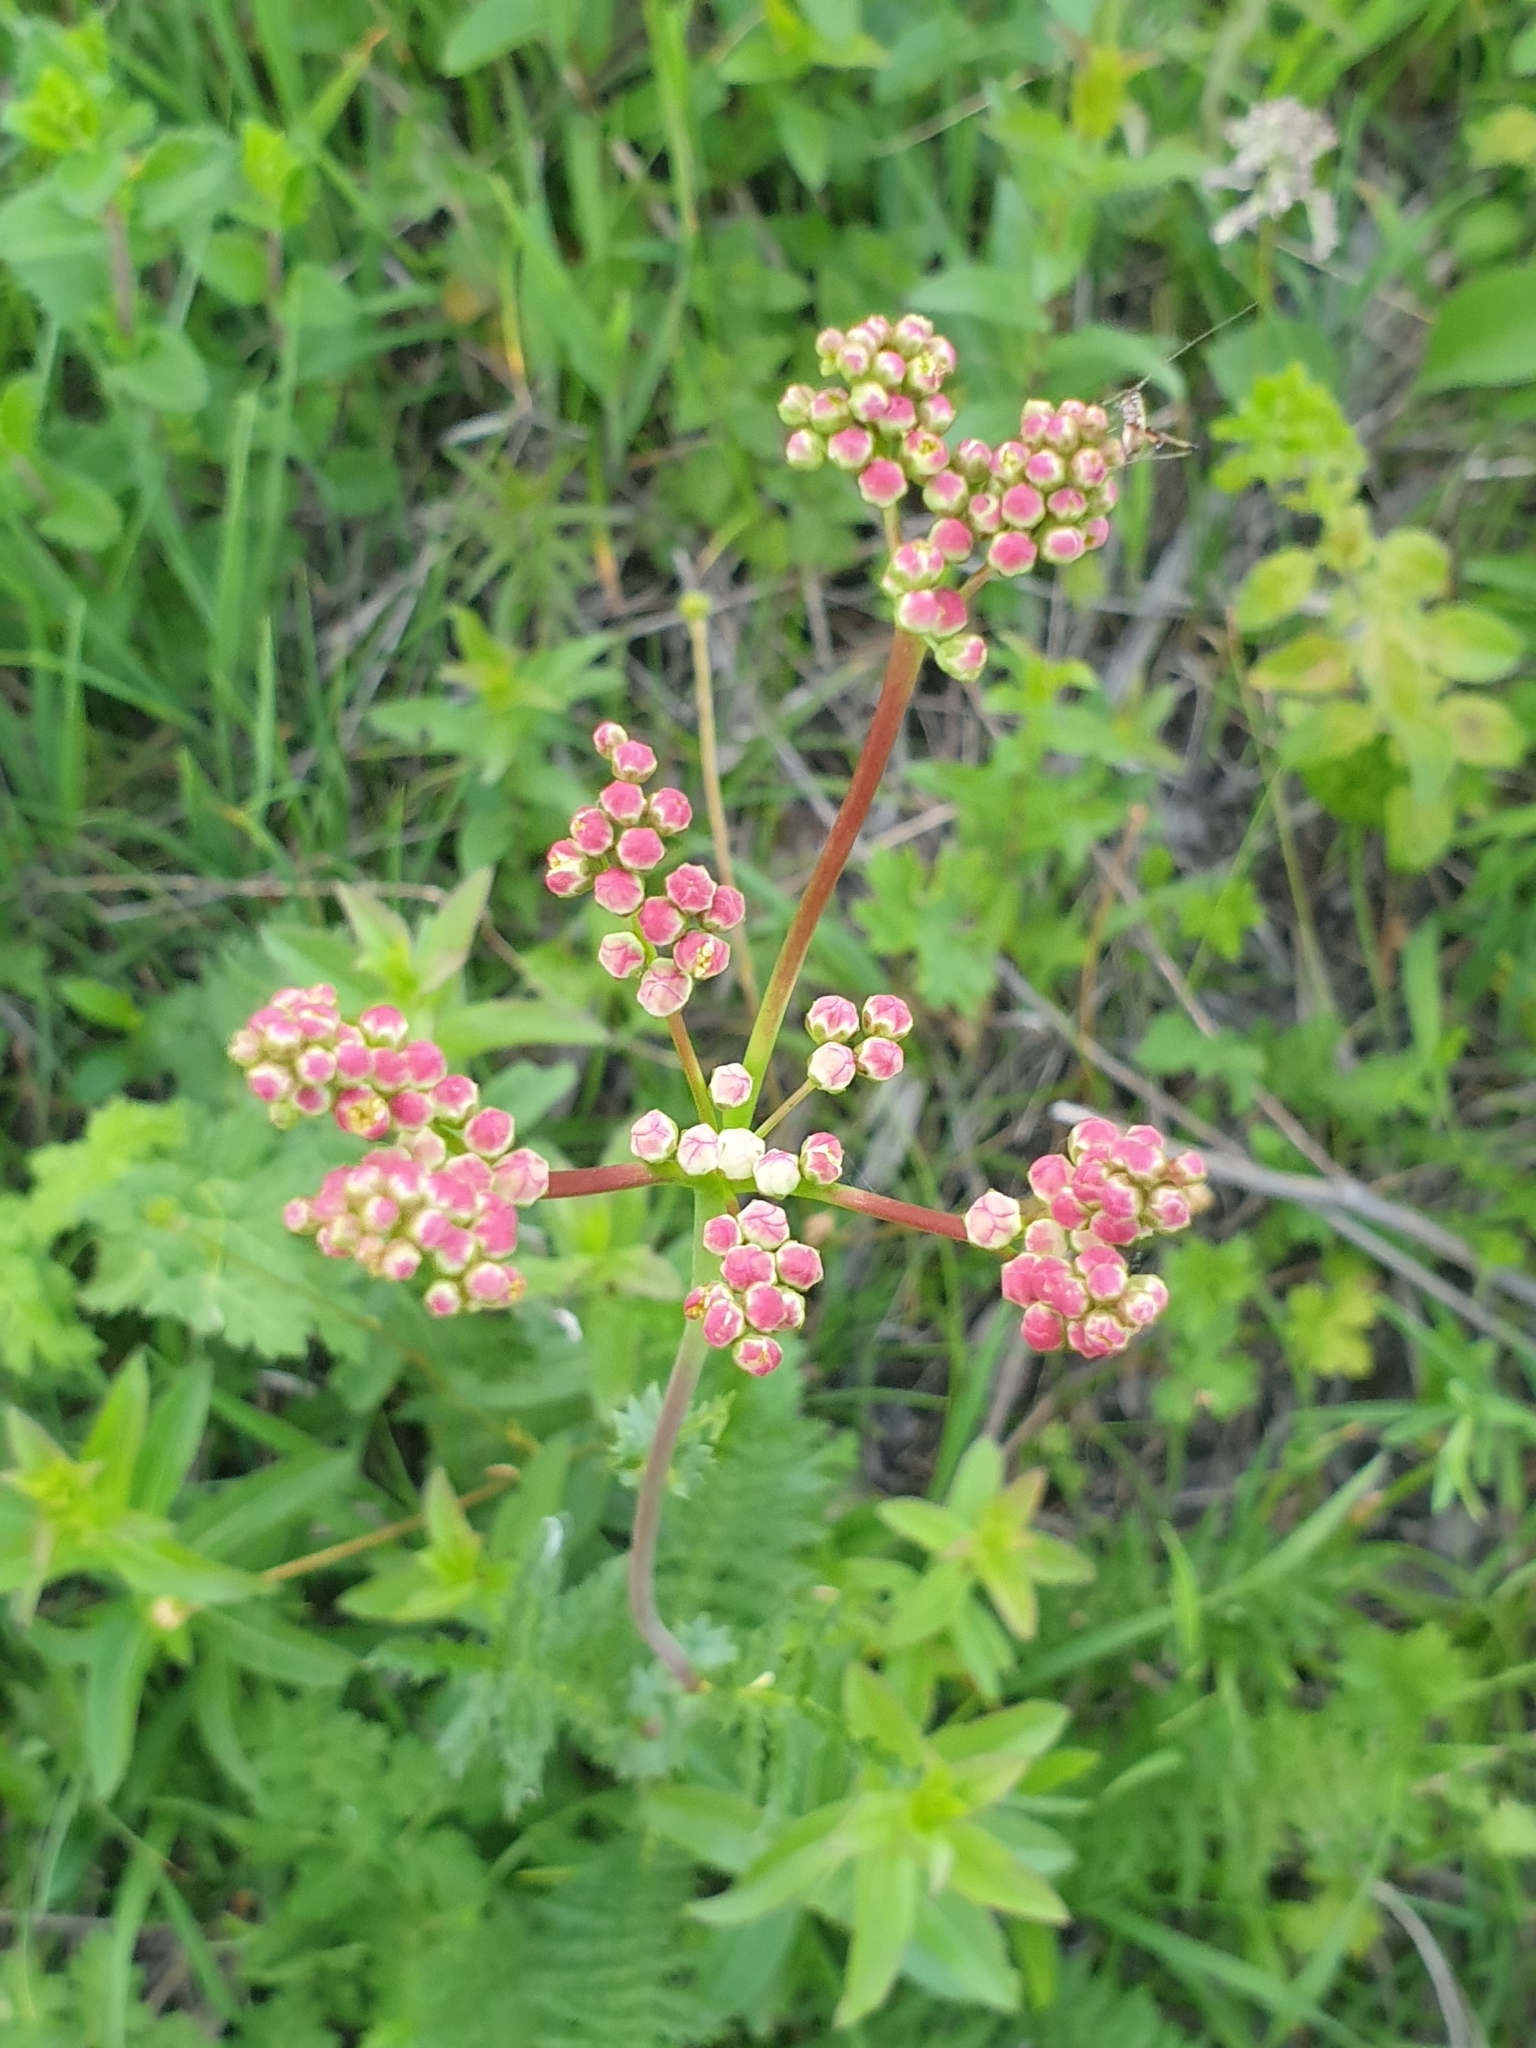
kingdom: Plantae
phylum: Tracheophyta
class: Magnoliopsida
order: Rosales
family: Rosaceae
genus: Filipendula
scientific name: Filipendula vulgaris
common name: Dropwort
